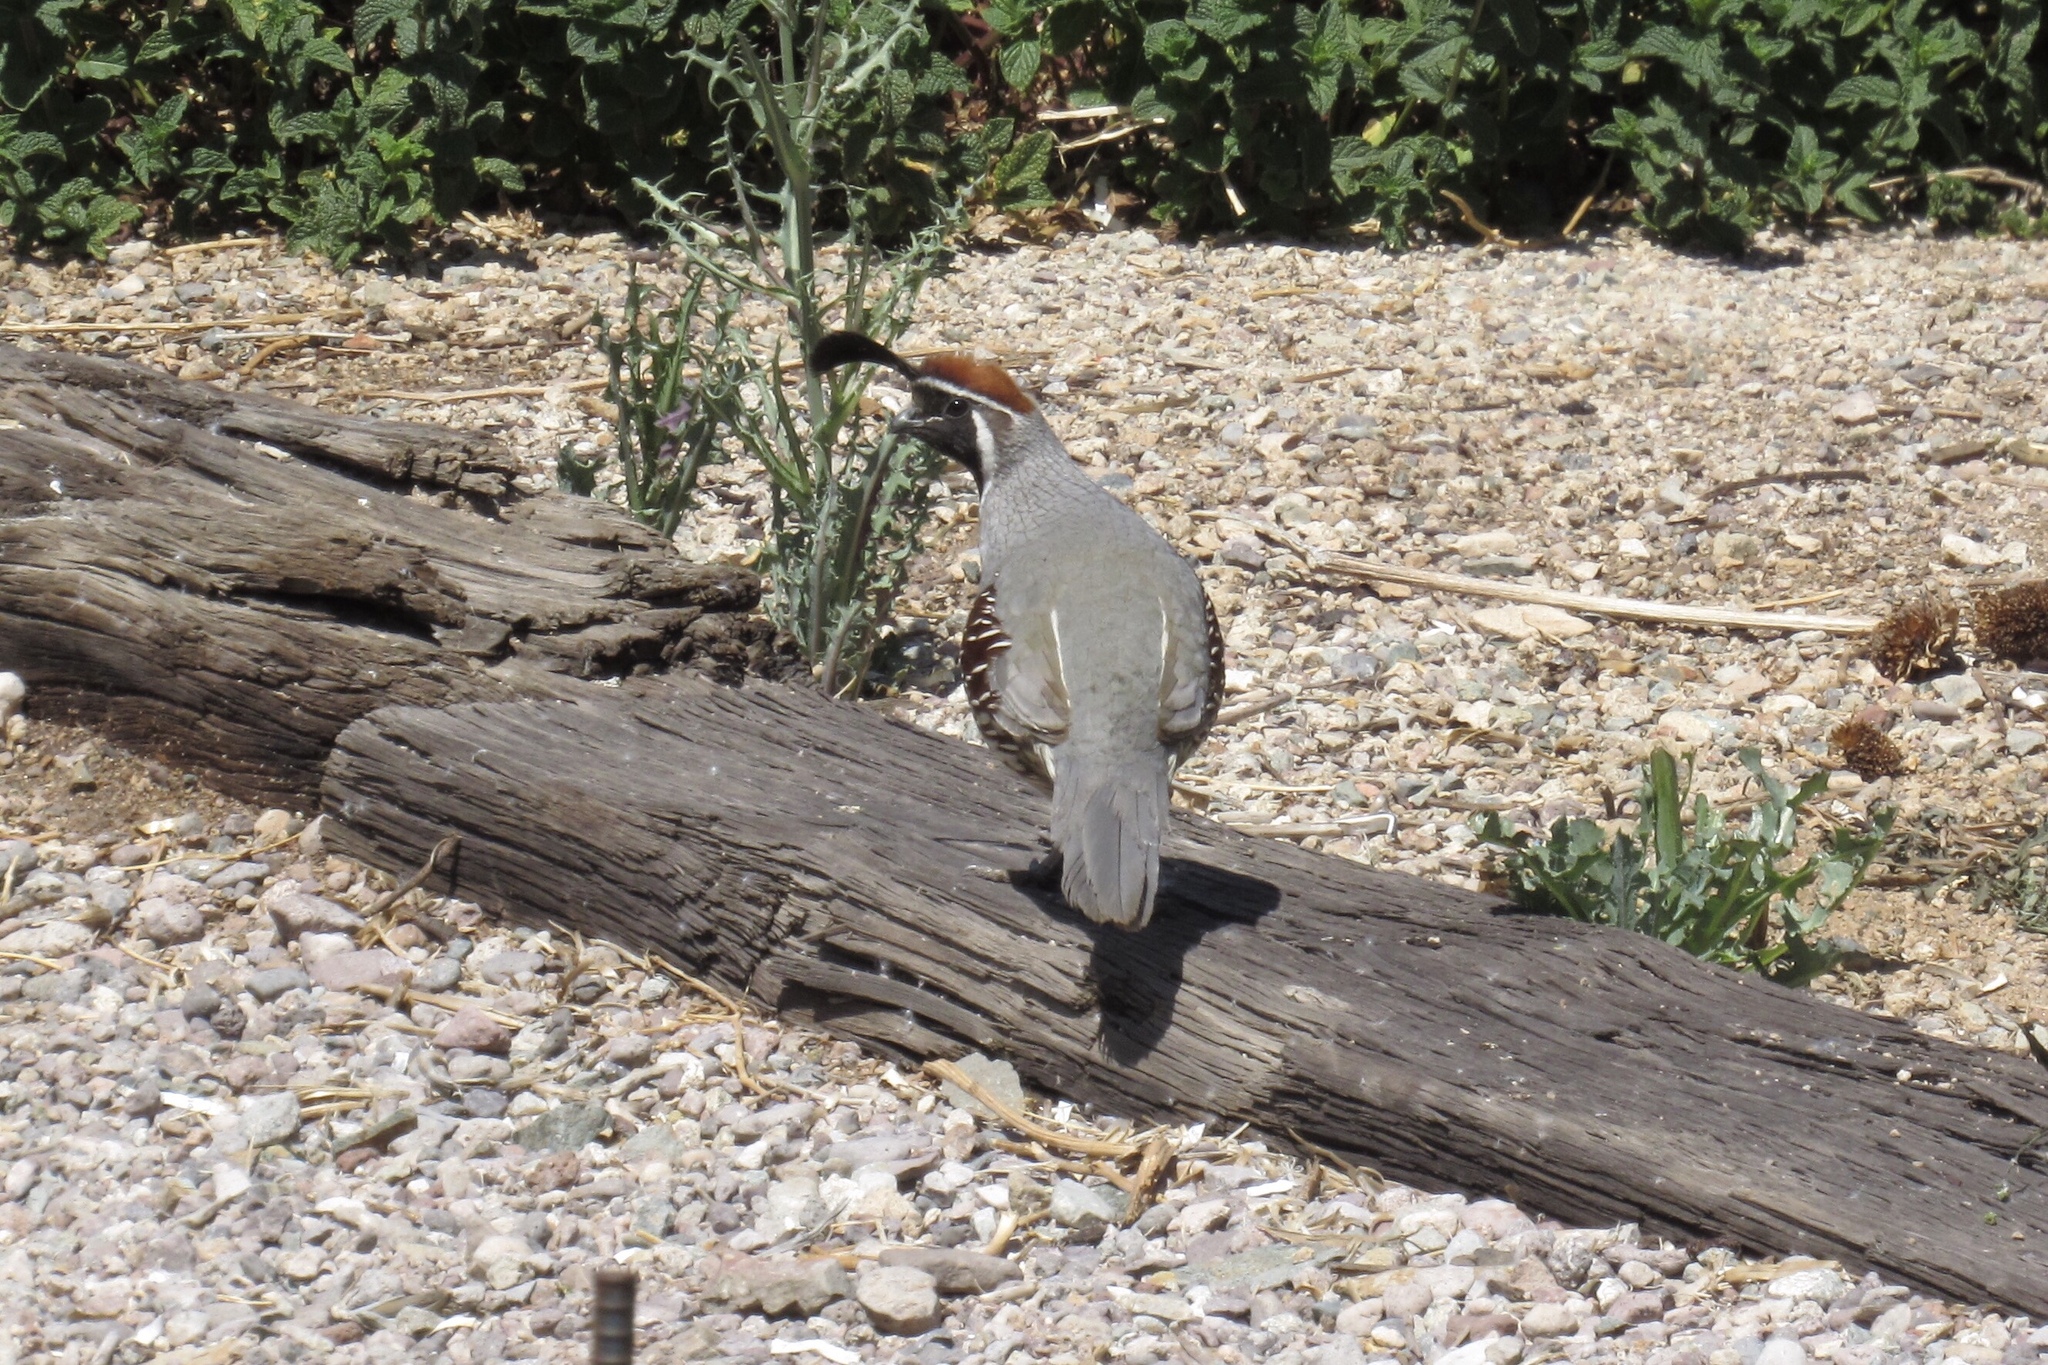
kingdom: Animalia
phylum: Chordata
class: Aves
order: Galliformes
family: Odontophoridae
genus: Callipepla
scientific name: Callipepla gambelii
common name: Gambel's quail
